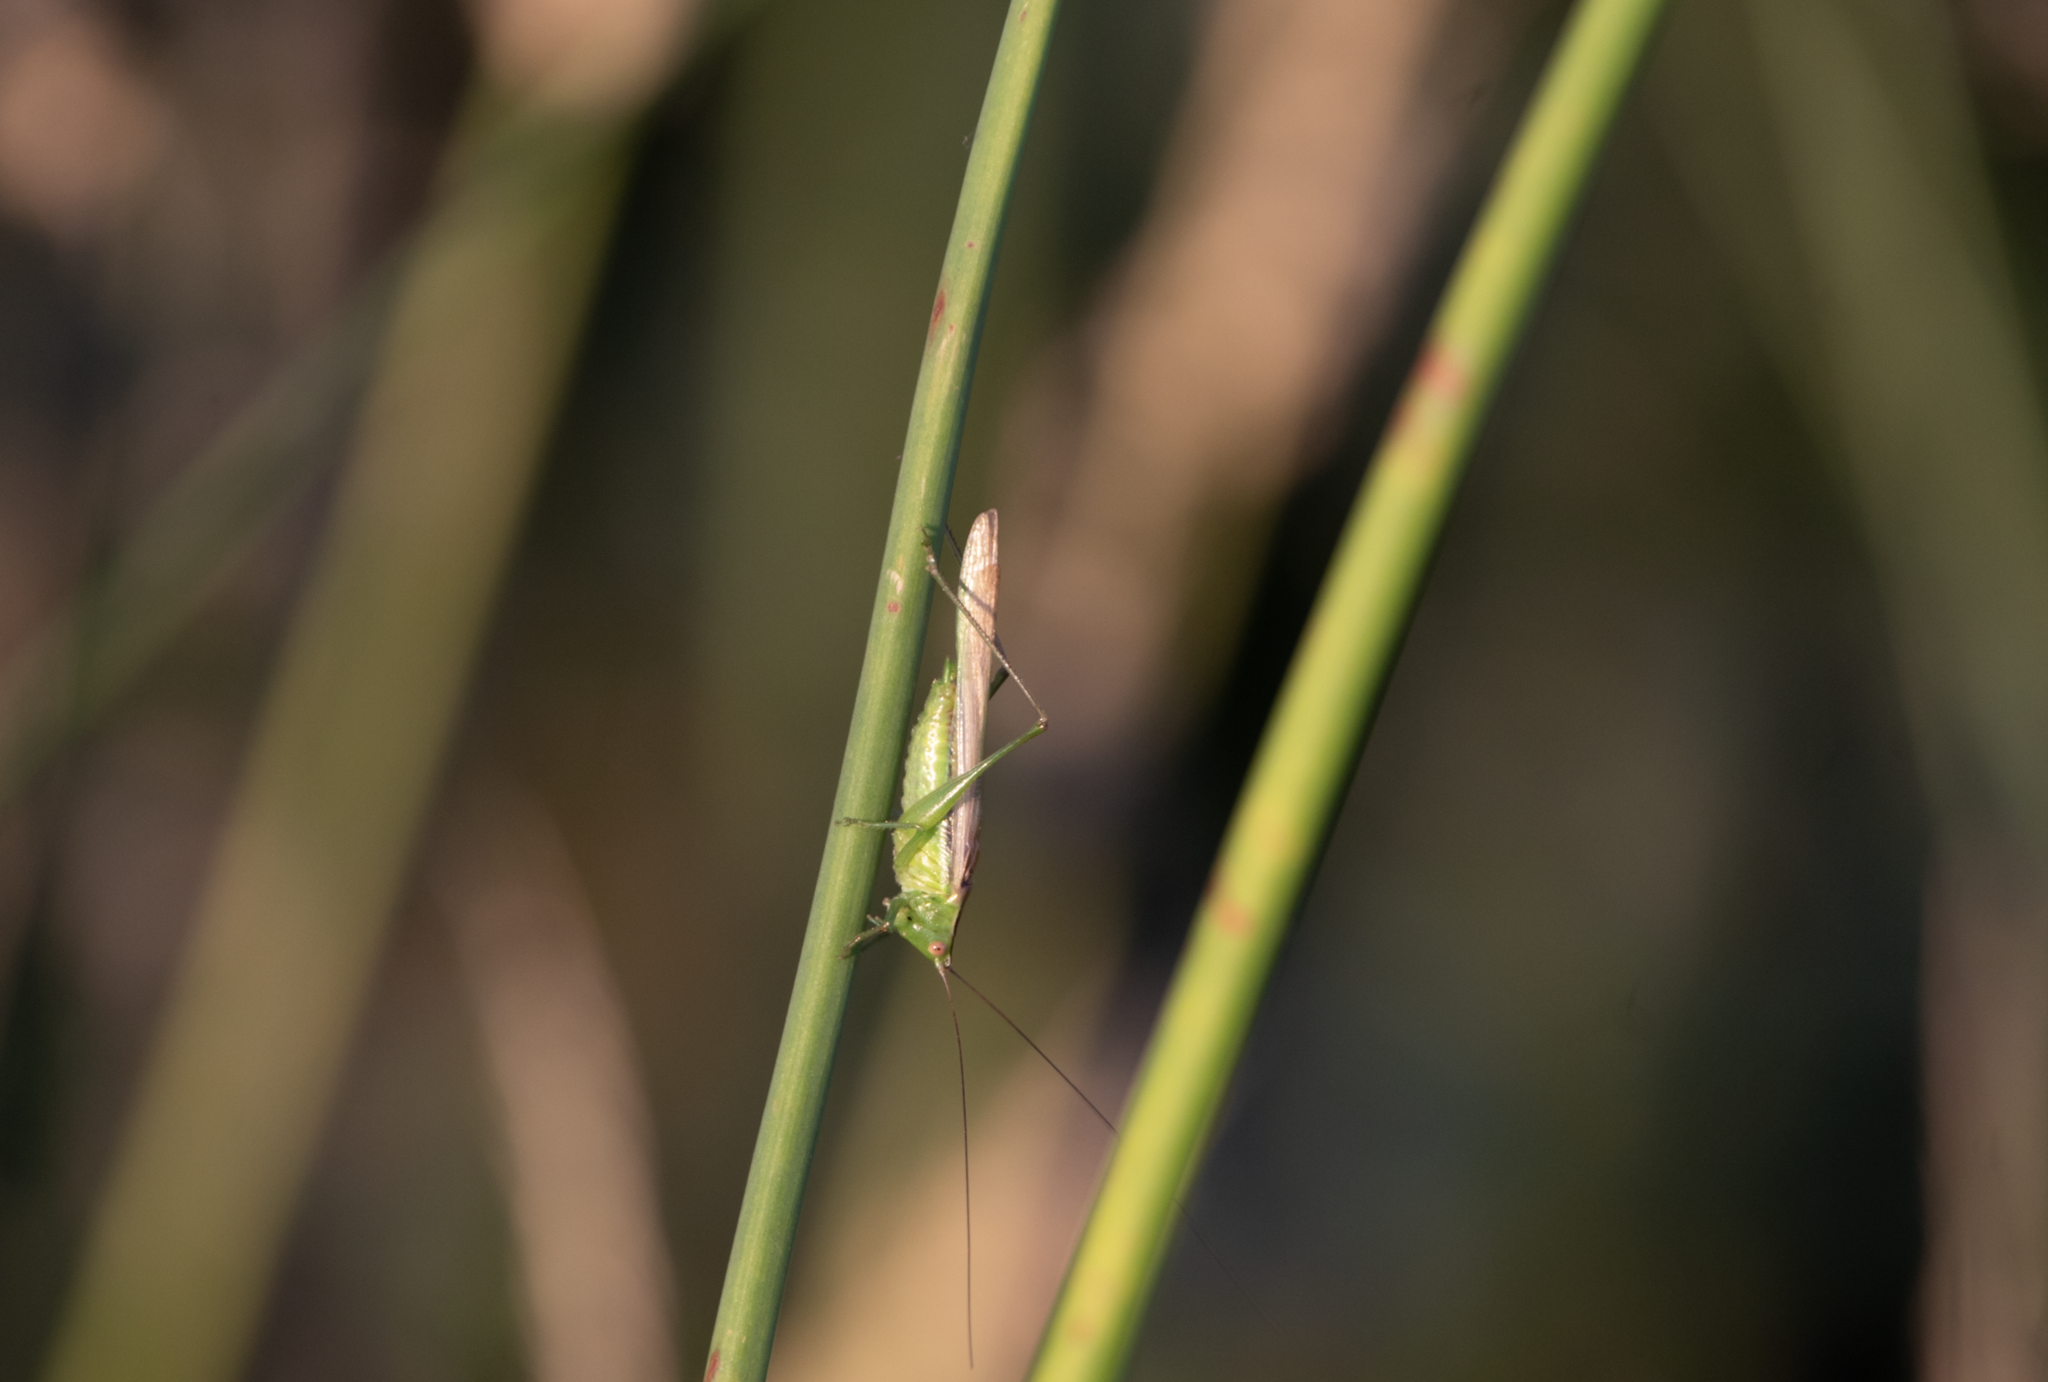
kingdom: Animalia
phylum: Arthropoda
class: Insecta
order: Orthoptera
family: Tettigoniidae
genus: Conocephalus
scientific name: Conocephalus fasciatus
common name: Slender meadow katydid
